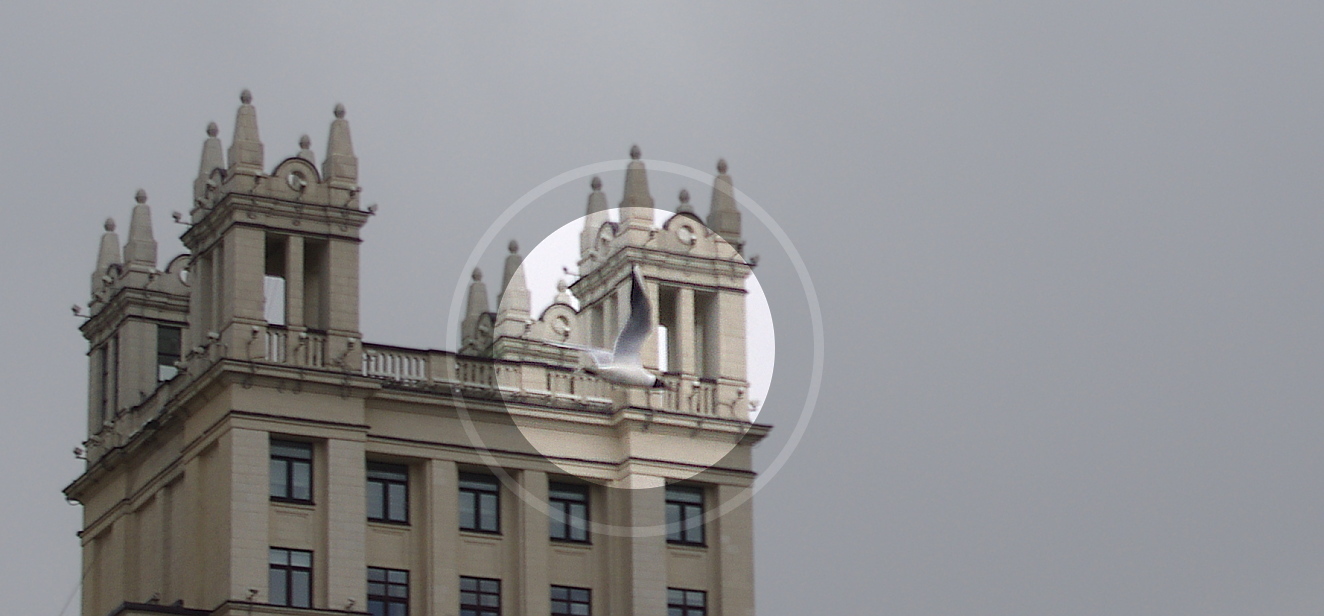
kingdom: Animalia
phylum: Chordata
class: Aves
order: Charadriiformes
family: Laridae
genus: Chroicocephalus
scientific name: Chroicocephalus ridibundus
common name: Black-headed gull
